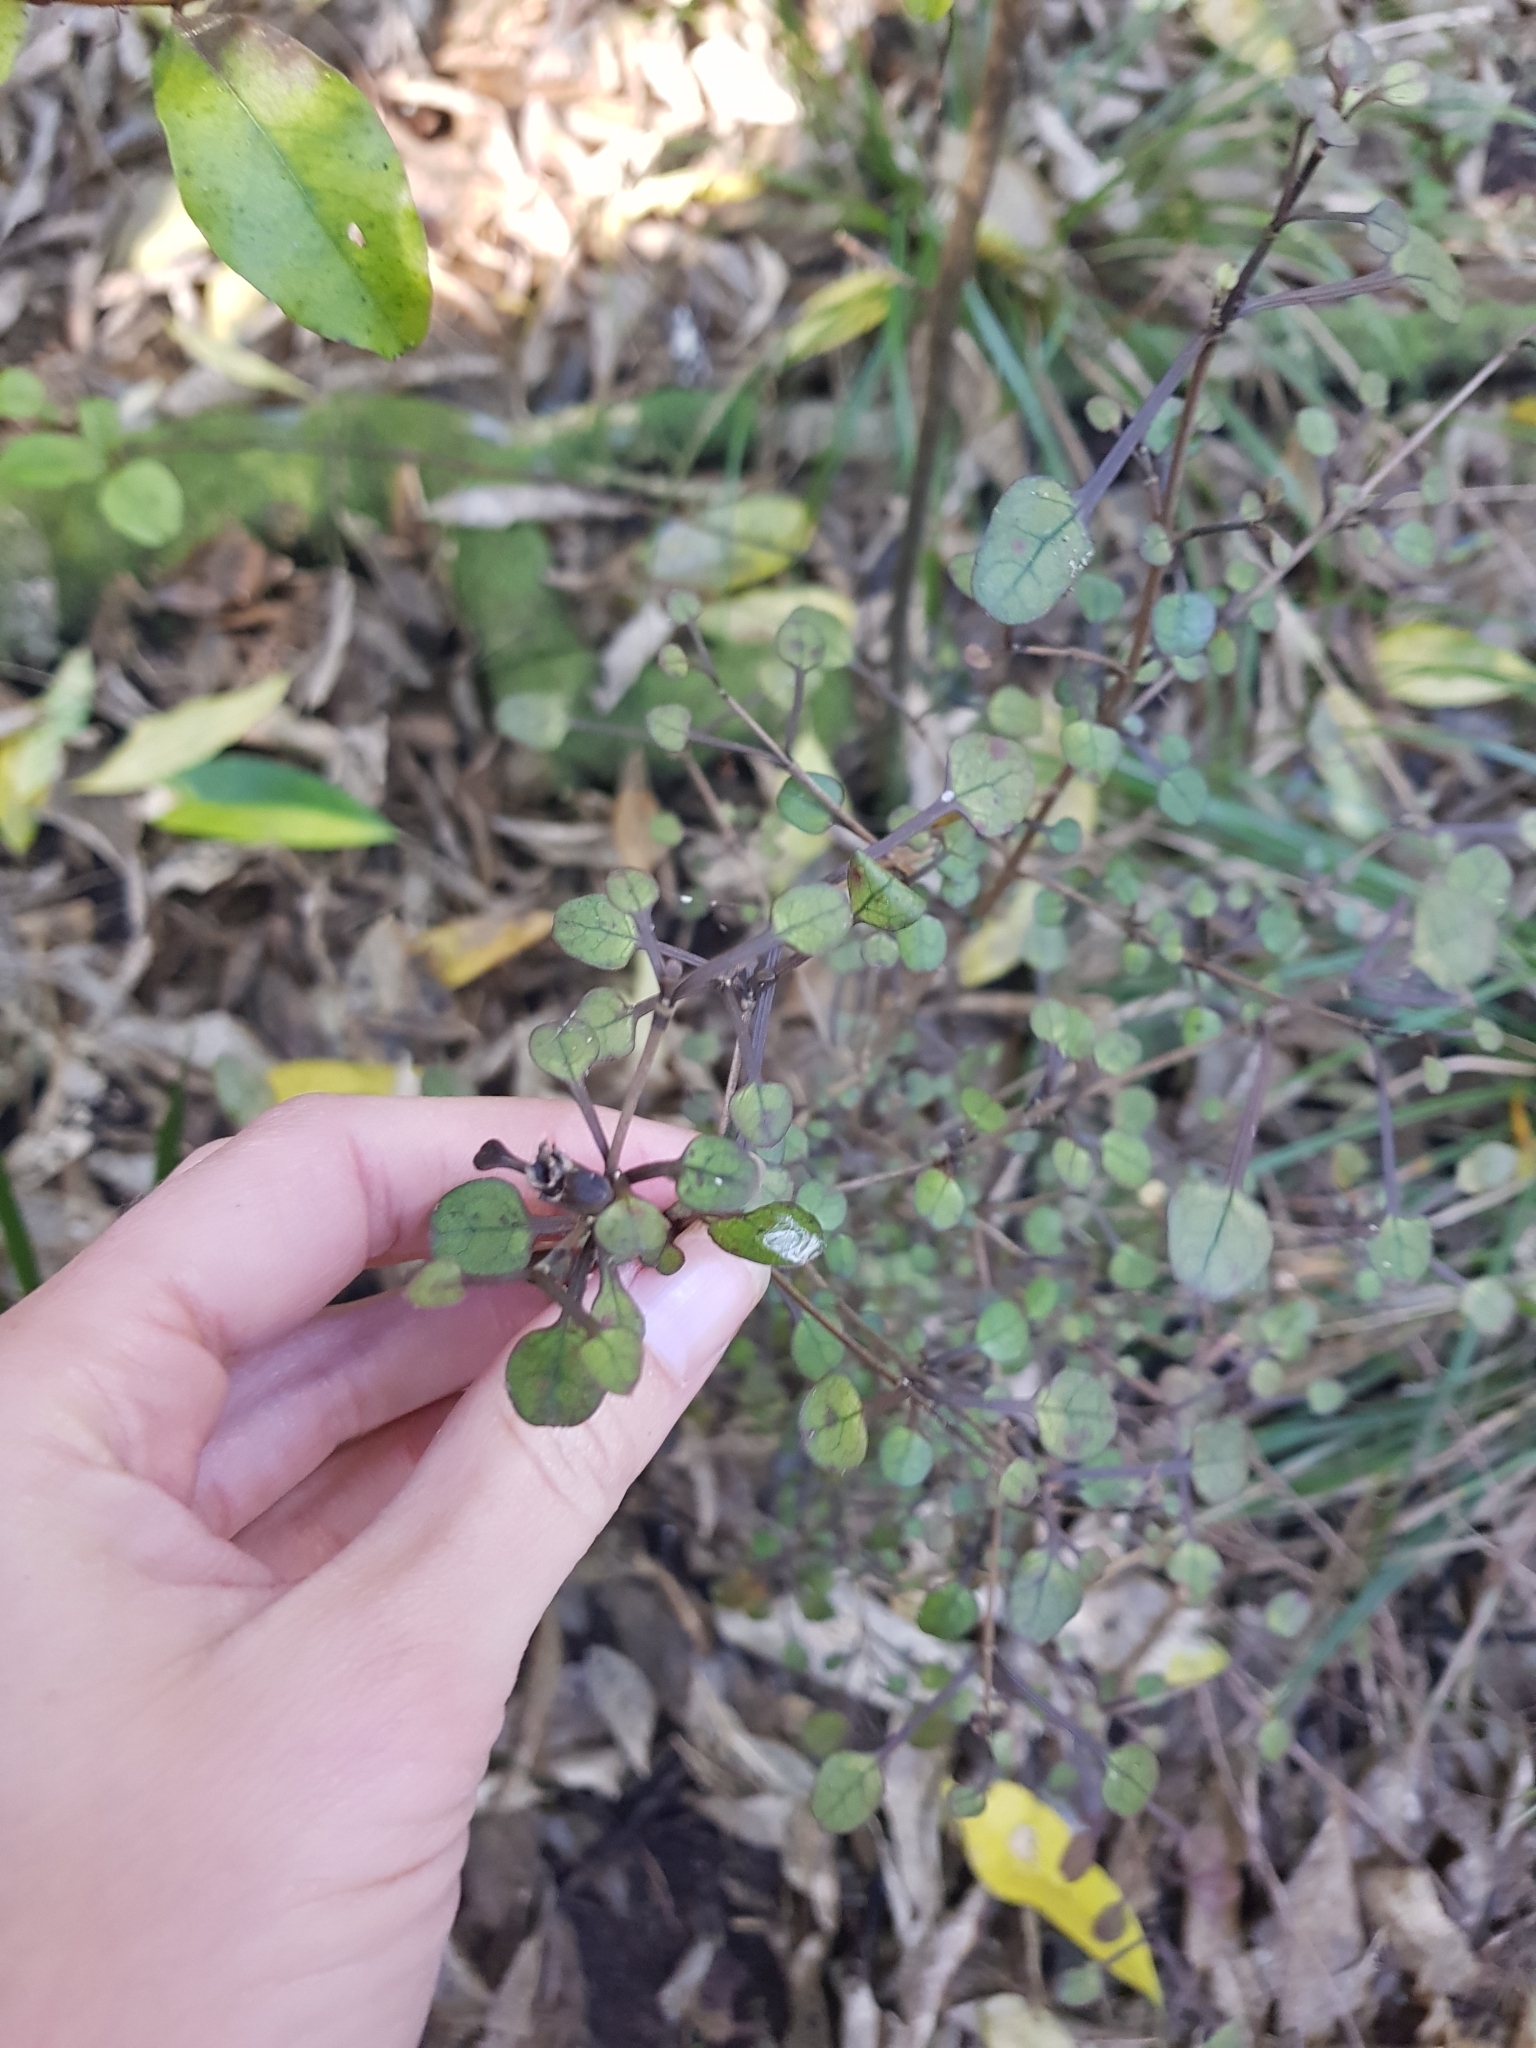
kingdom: Plantae
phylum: Tracheophyta
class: Magnoliopsida
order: Gentianales
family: Rubiaceae
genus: Coprosma
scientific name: Coprosma spathulata
